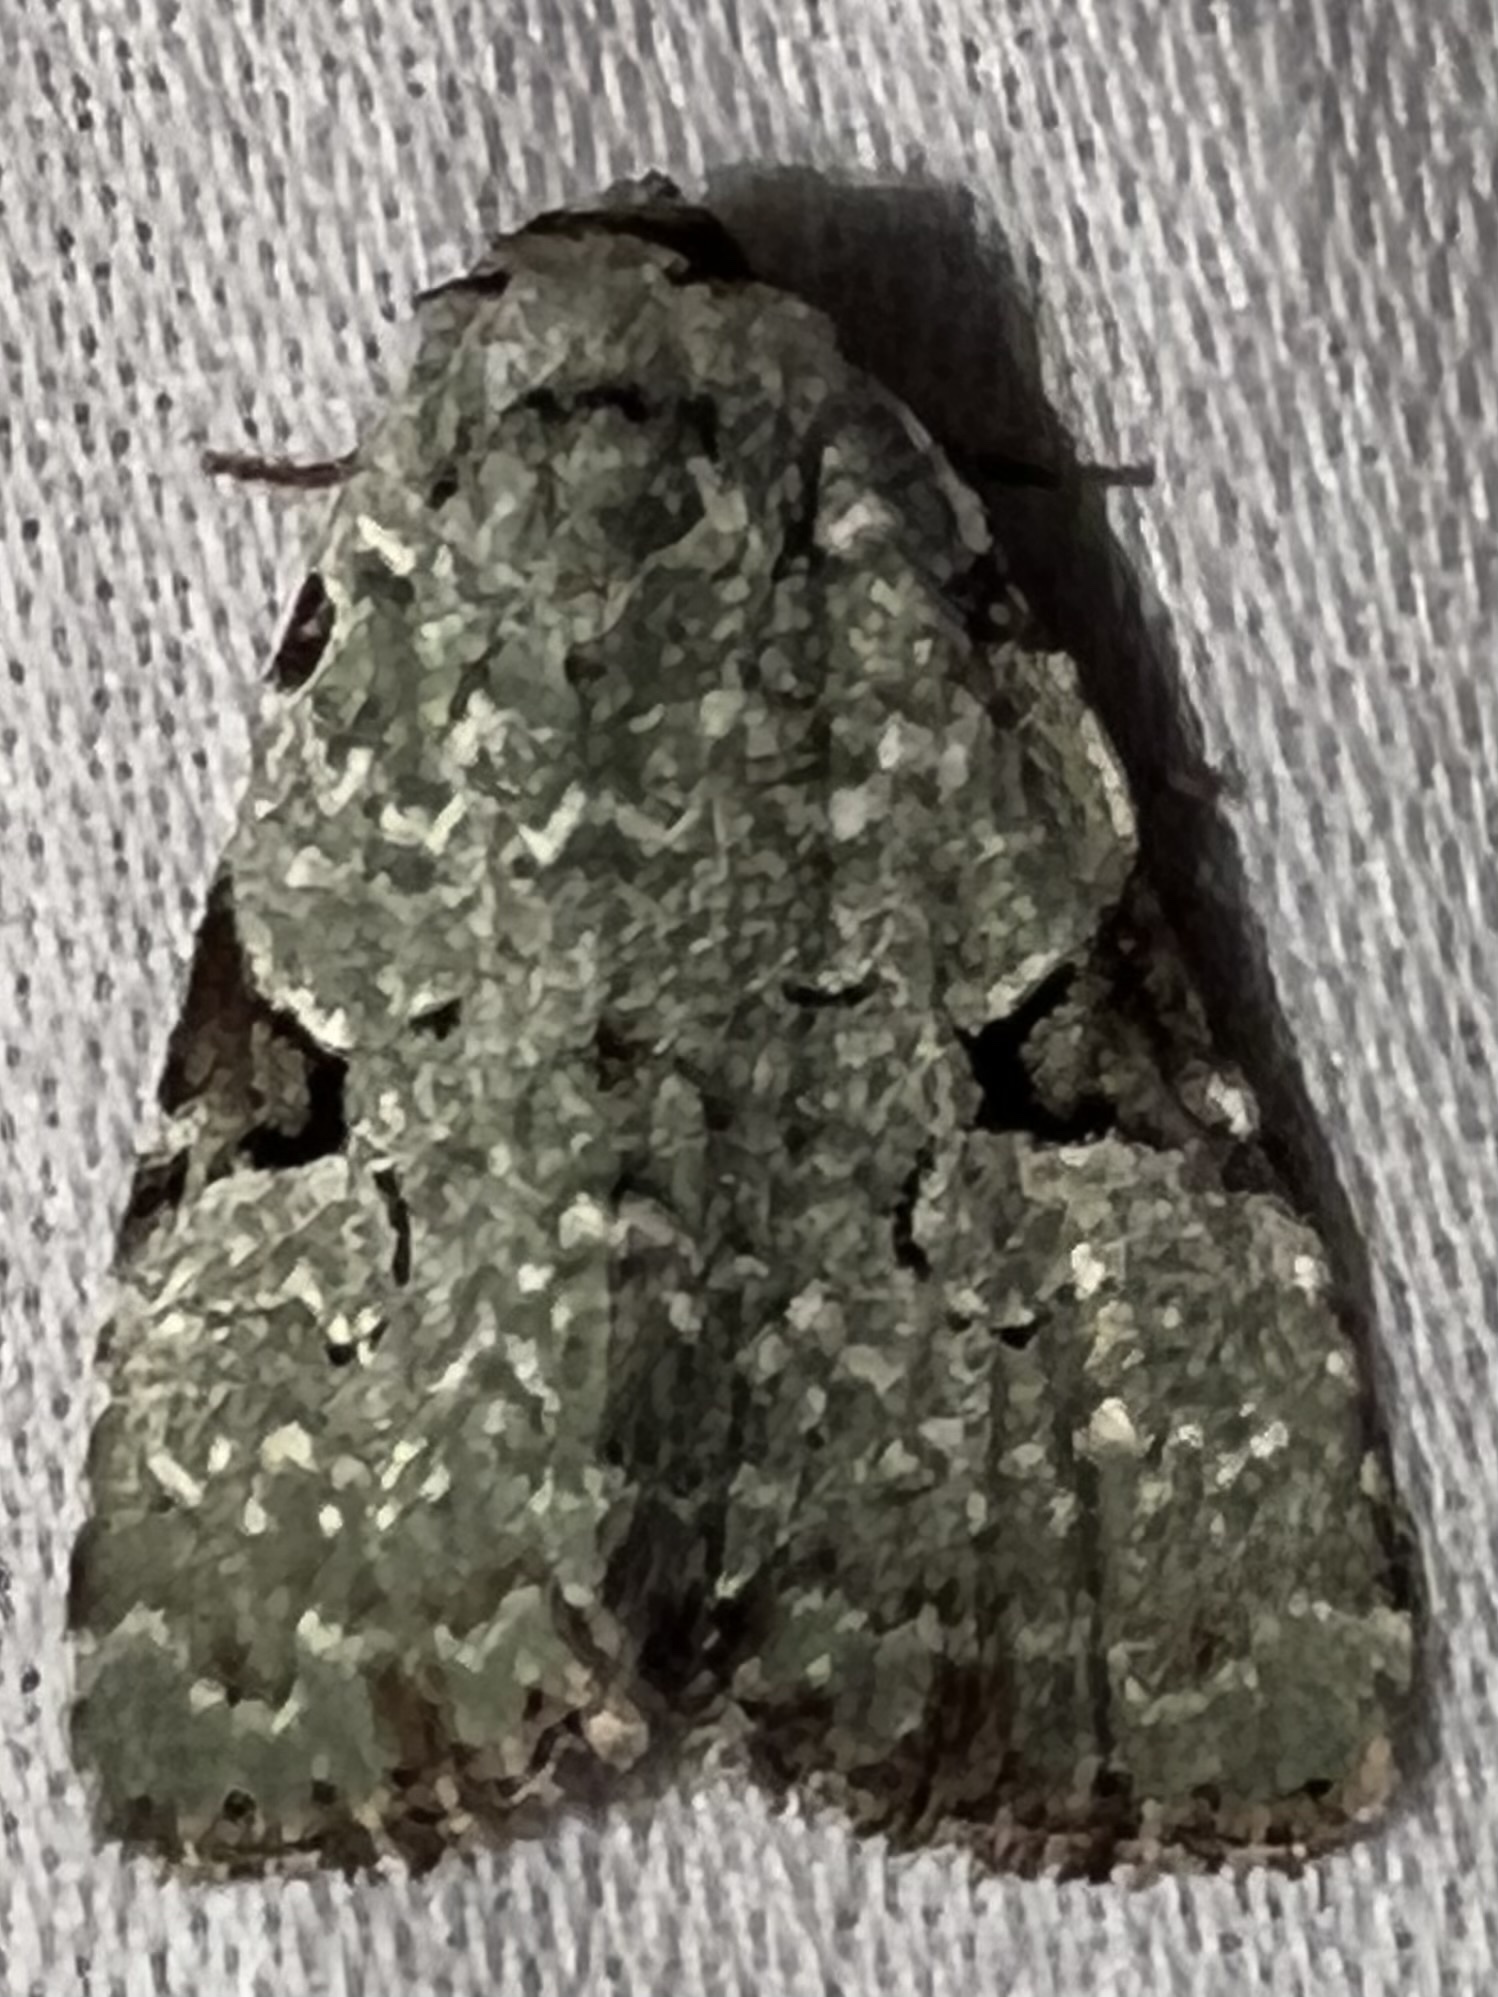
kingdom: Animalia
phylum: Arthropoda
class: Insecta
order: Lepidoptera
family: Noctuidae
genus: Leuconycta
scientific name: Leuconycta diphteroides
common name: Green leuconycta moth
